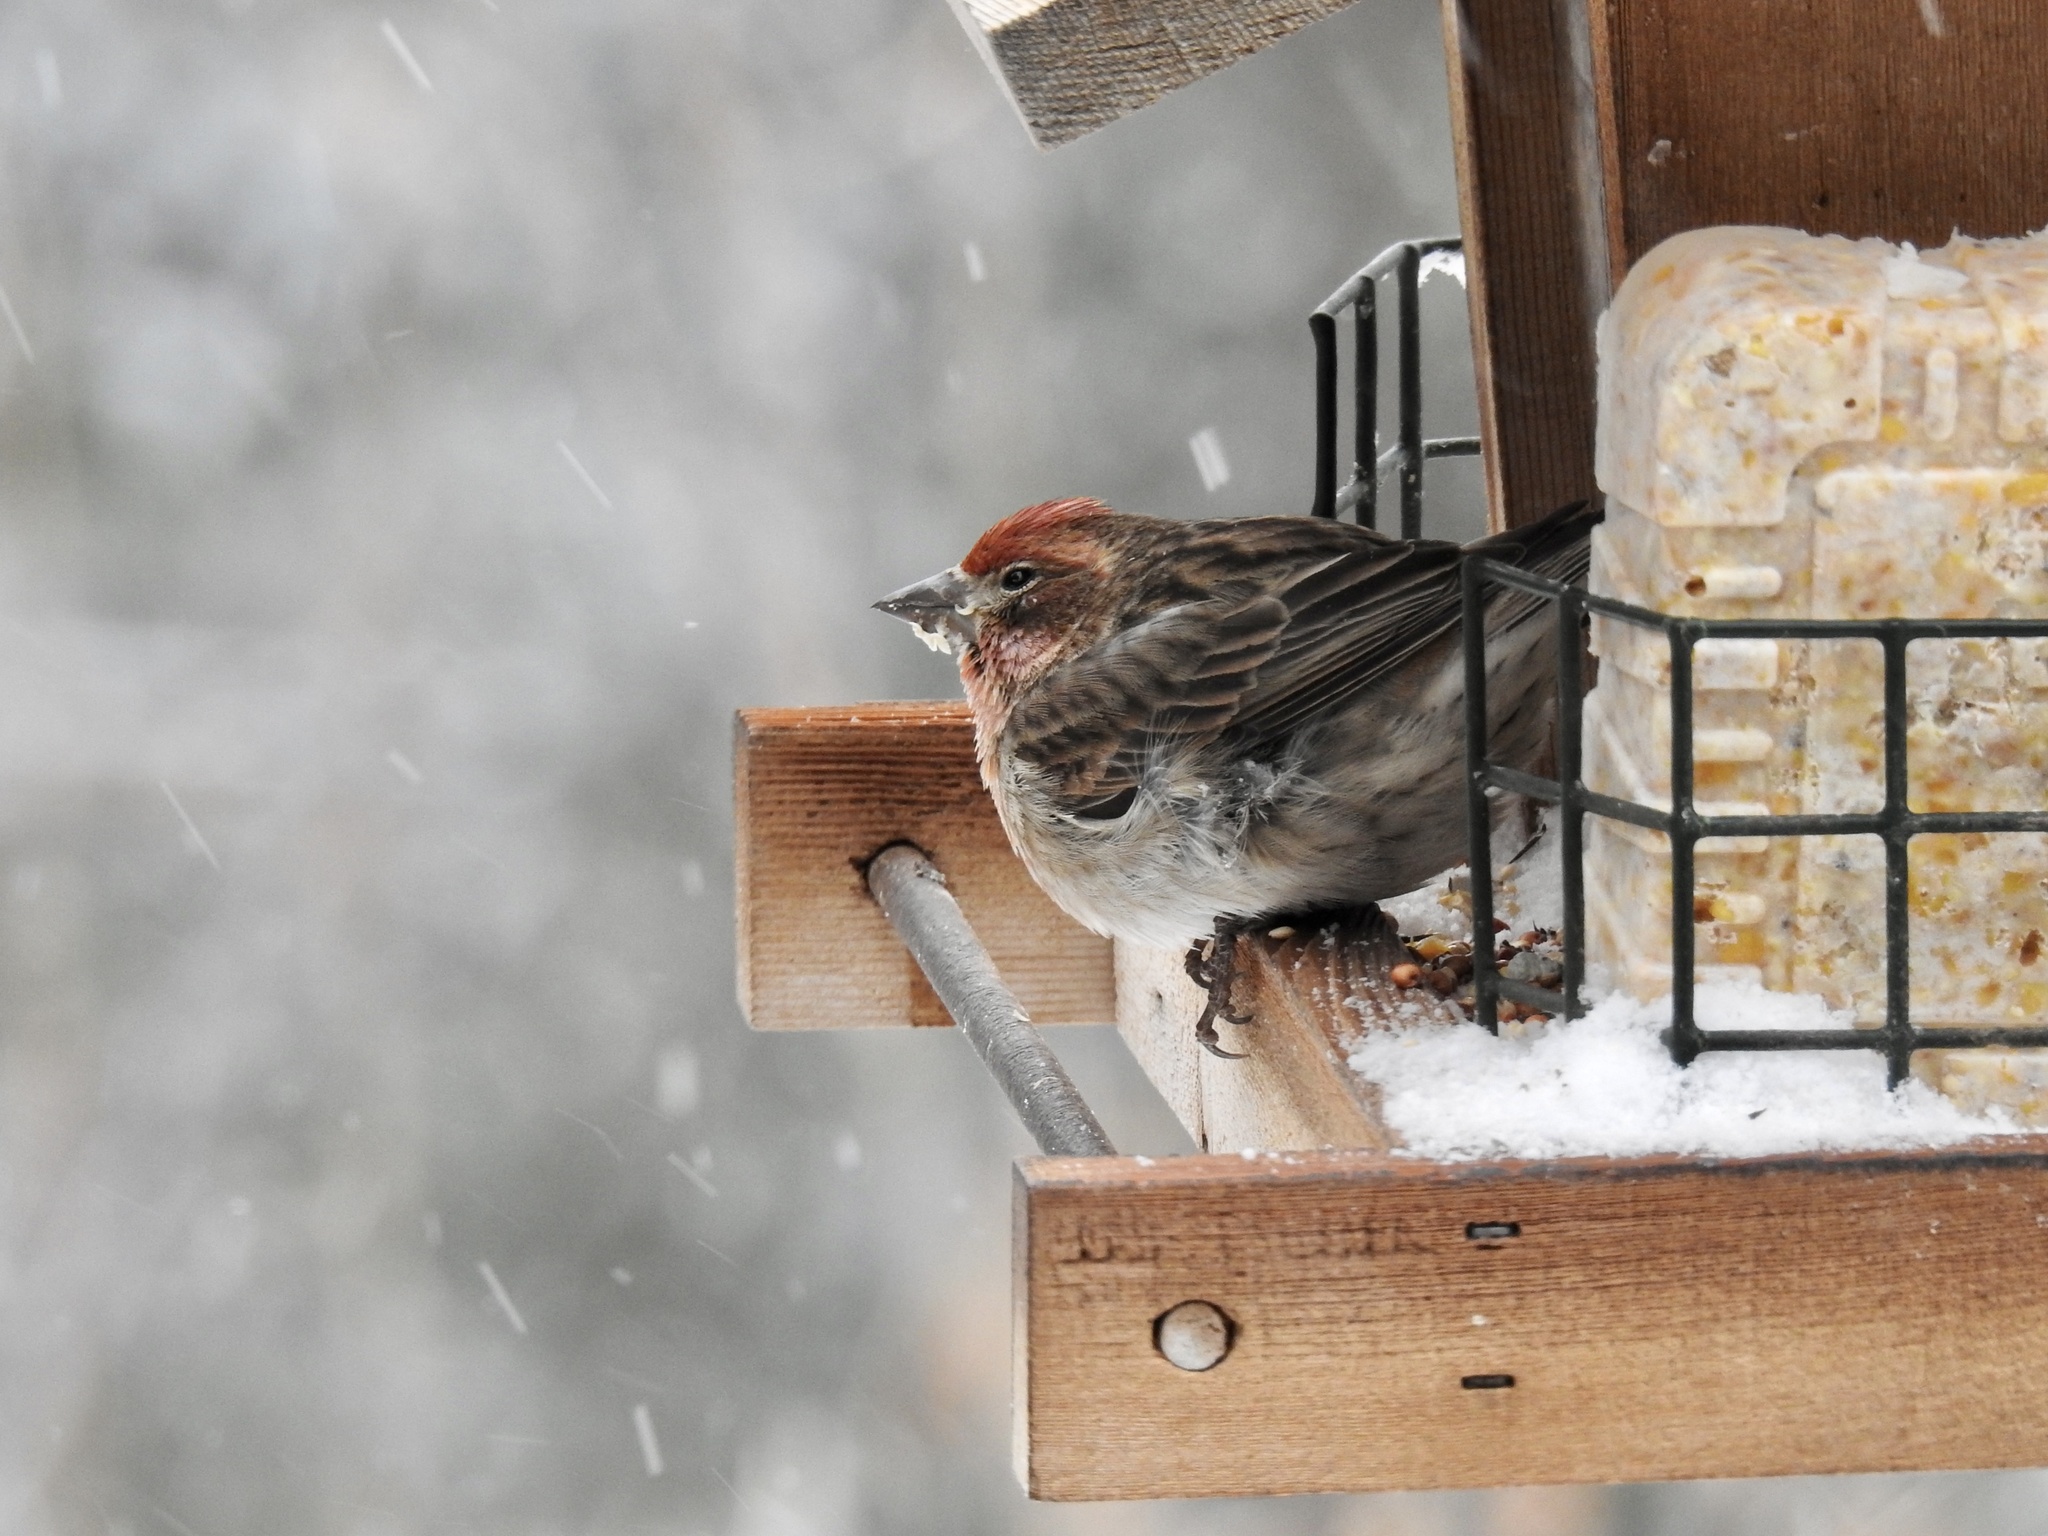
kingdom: Animalia
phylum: Chordata
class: Aves
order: Passeriformes
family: Fringillidae
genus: Haemorhous
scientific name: Haemorhous cassinii
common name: Cassin's finch
